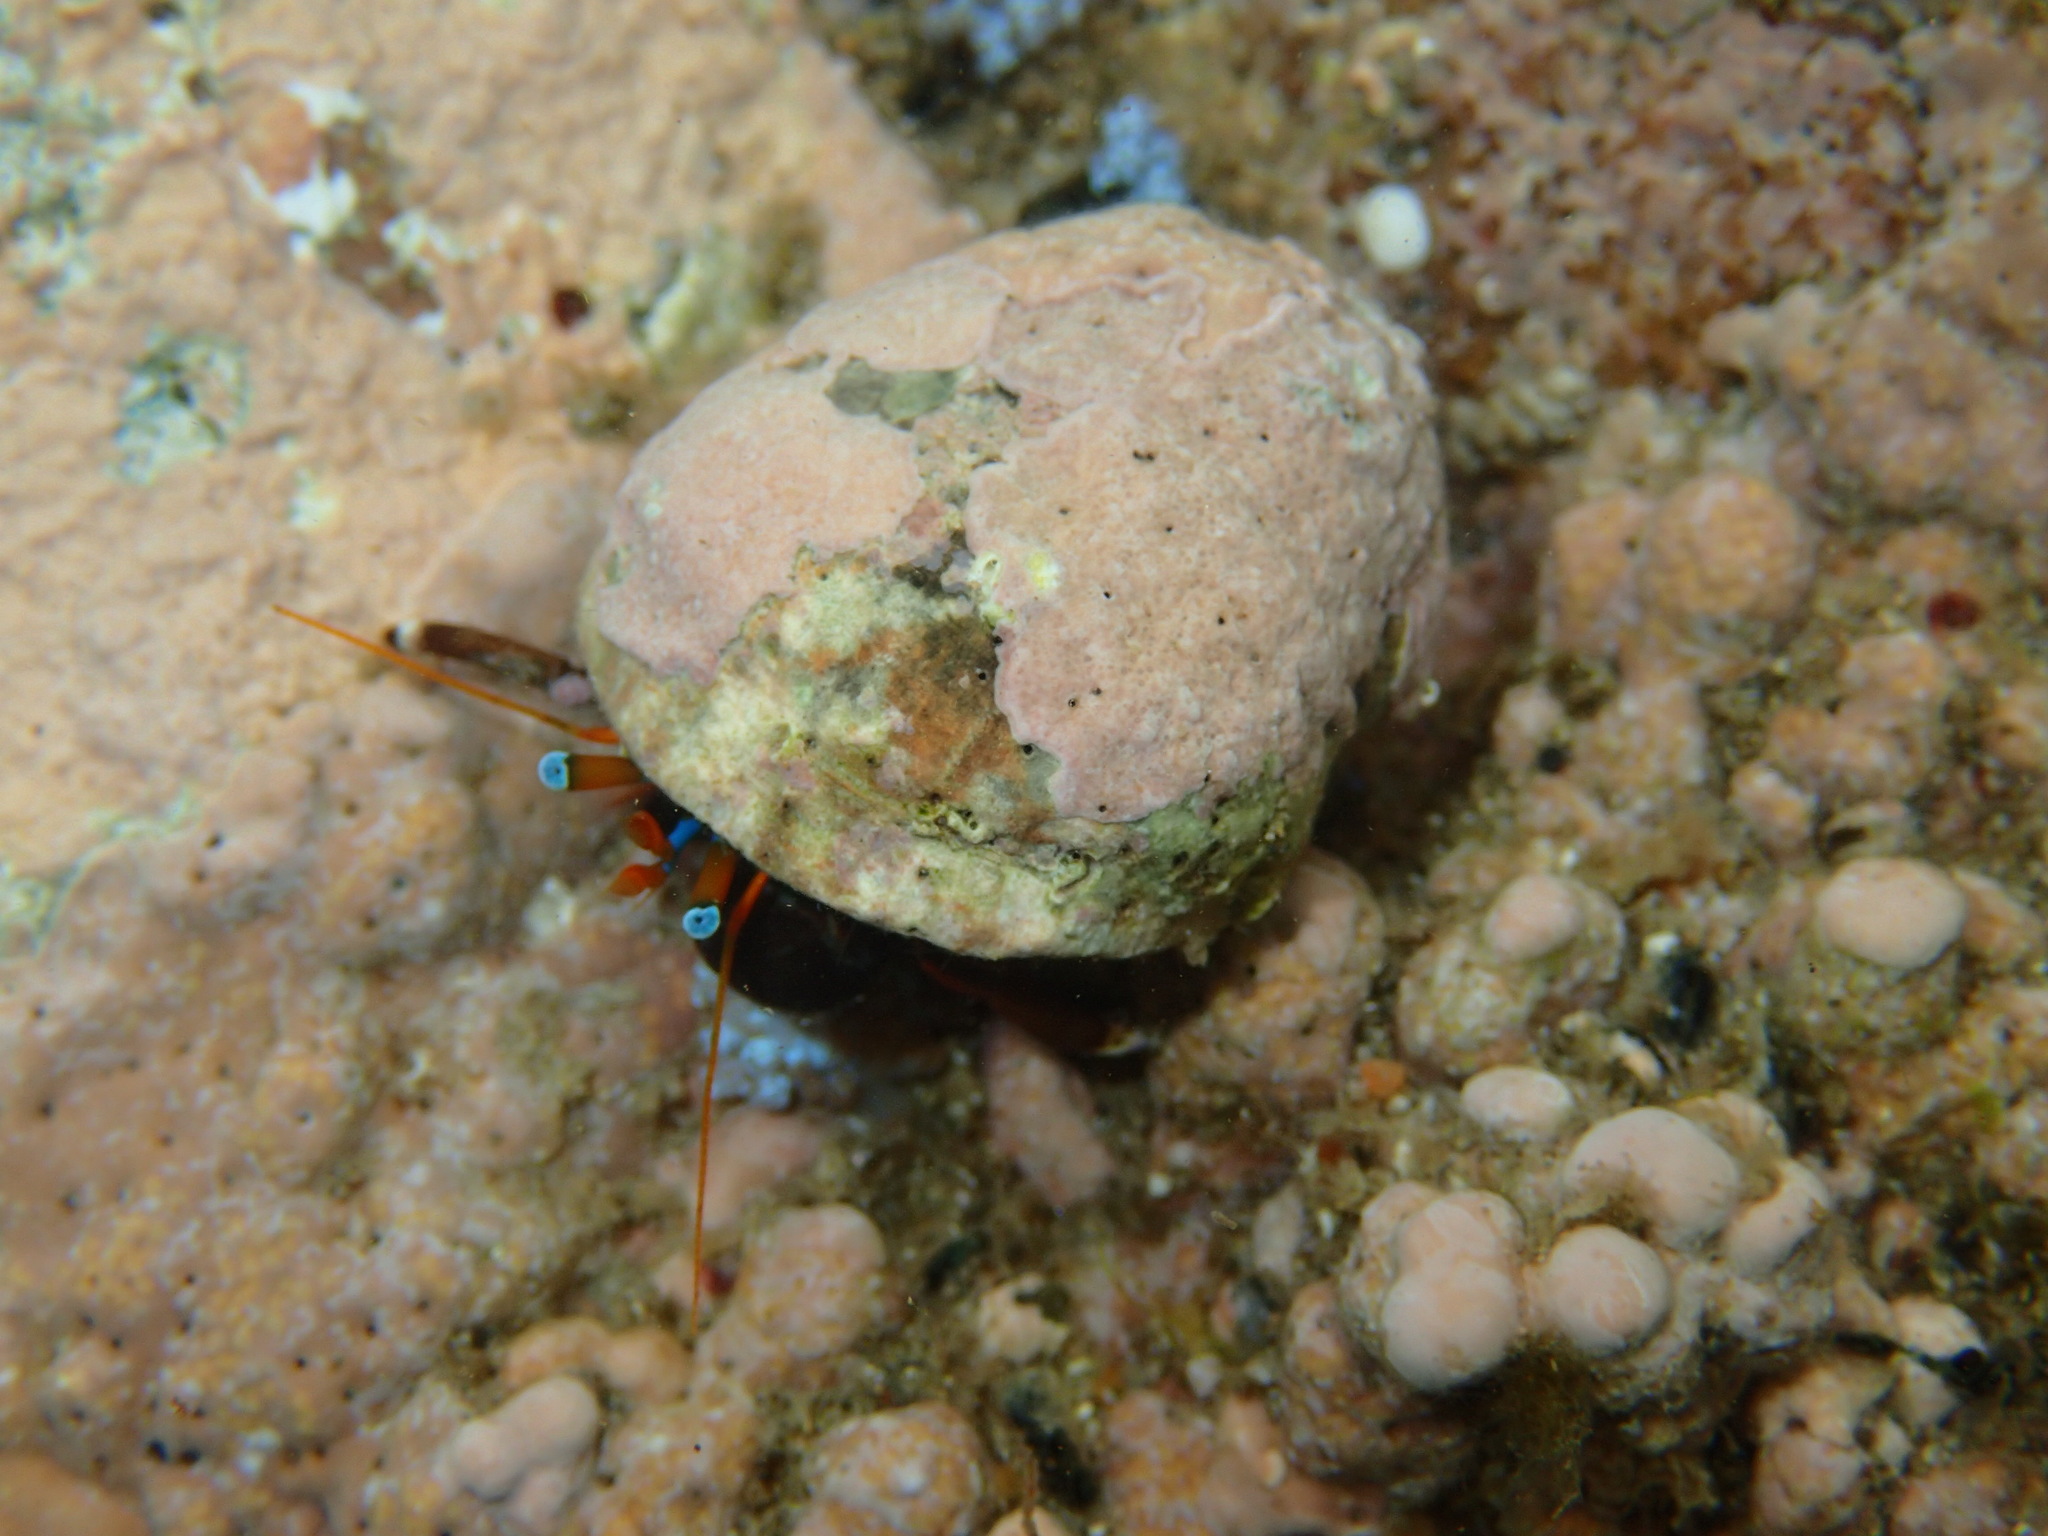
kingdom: Animalia
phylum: Arthropoda
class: Malacostraca
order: Decapoda
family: Diogenidae
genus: Calcinus
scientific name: Calcinus laevimanus
